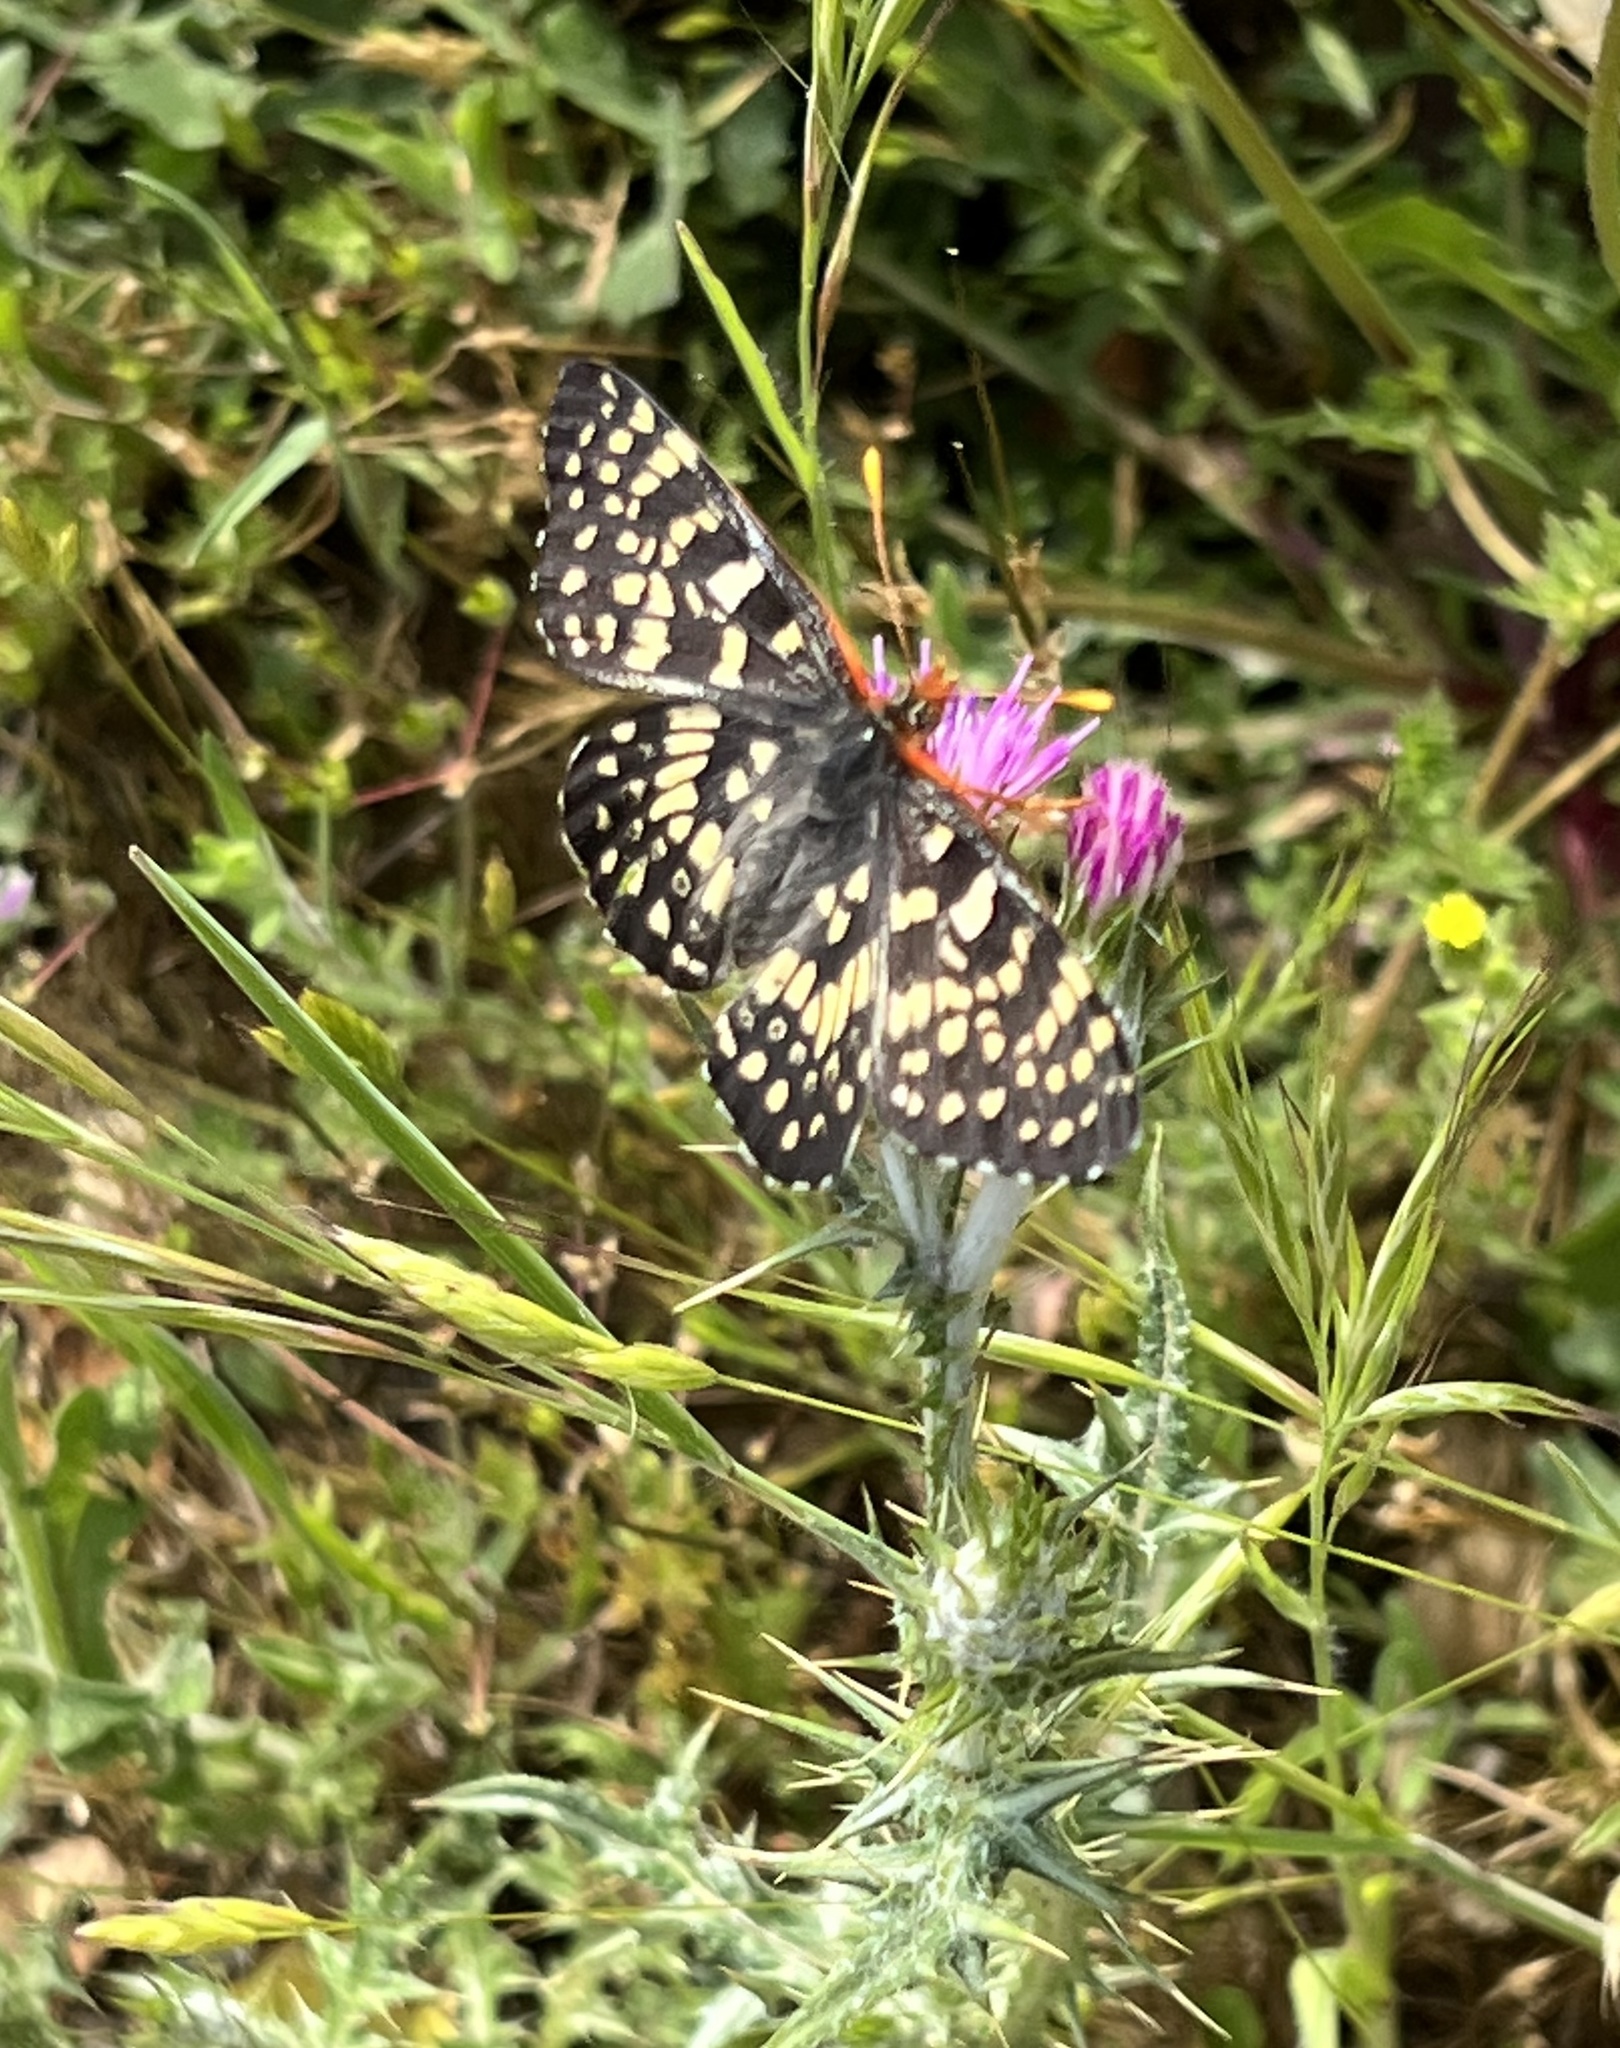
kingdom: Animalia
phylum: Arthropoda
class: Insecta
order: Lepidoptera
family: Nymphalidae
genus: Occidryas
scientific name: Occidryas chalcedona
